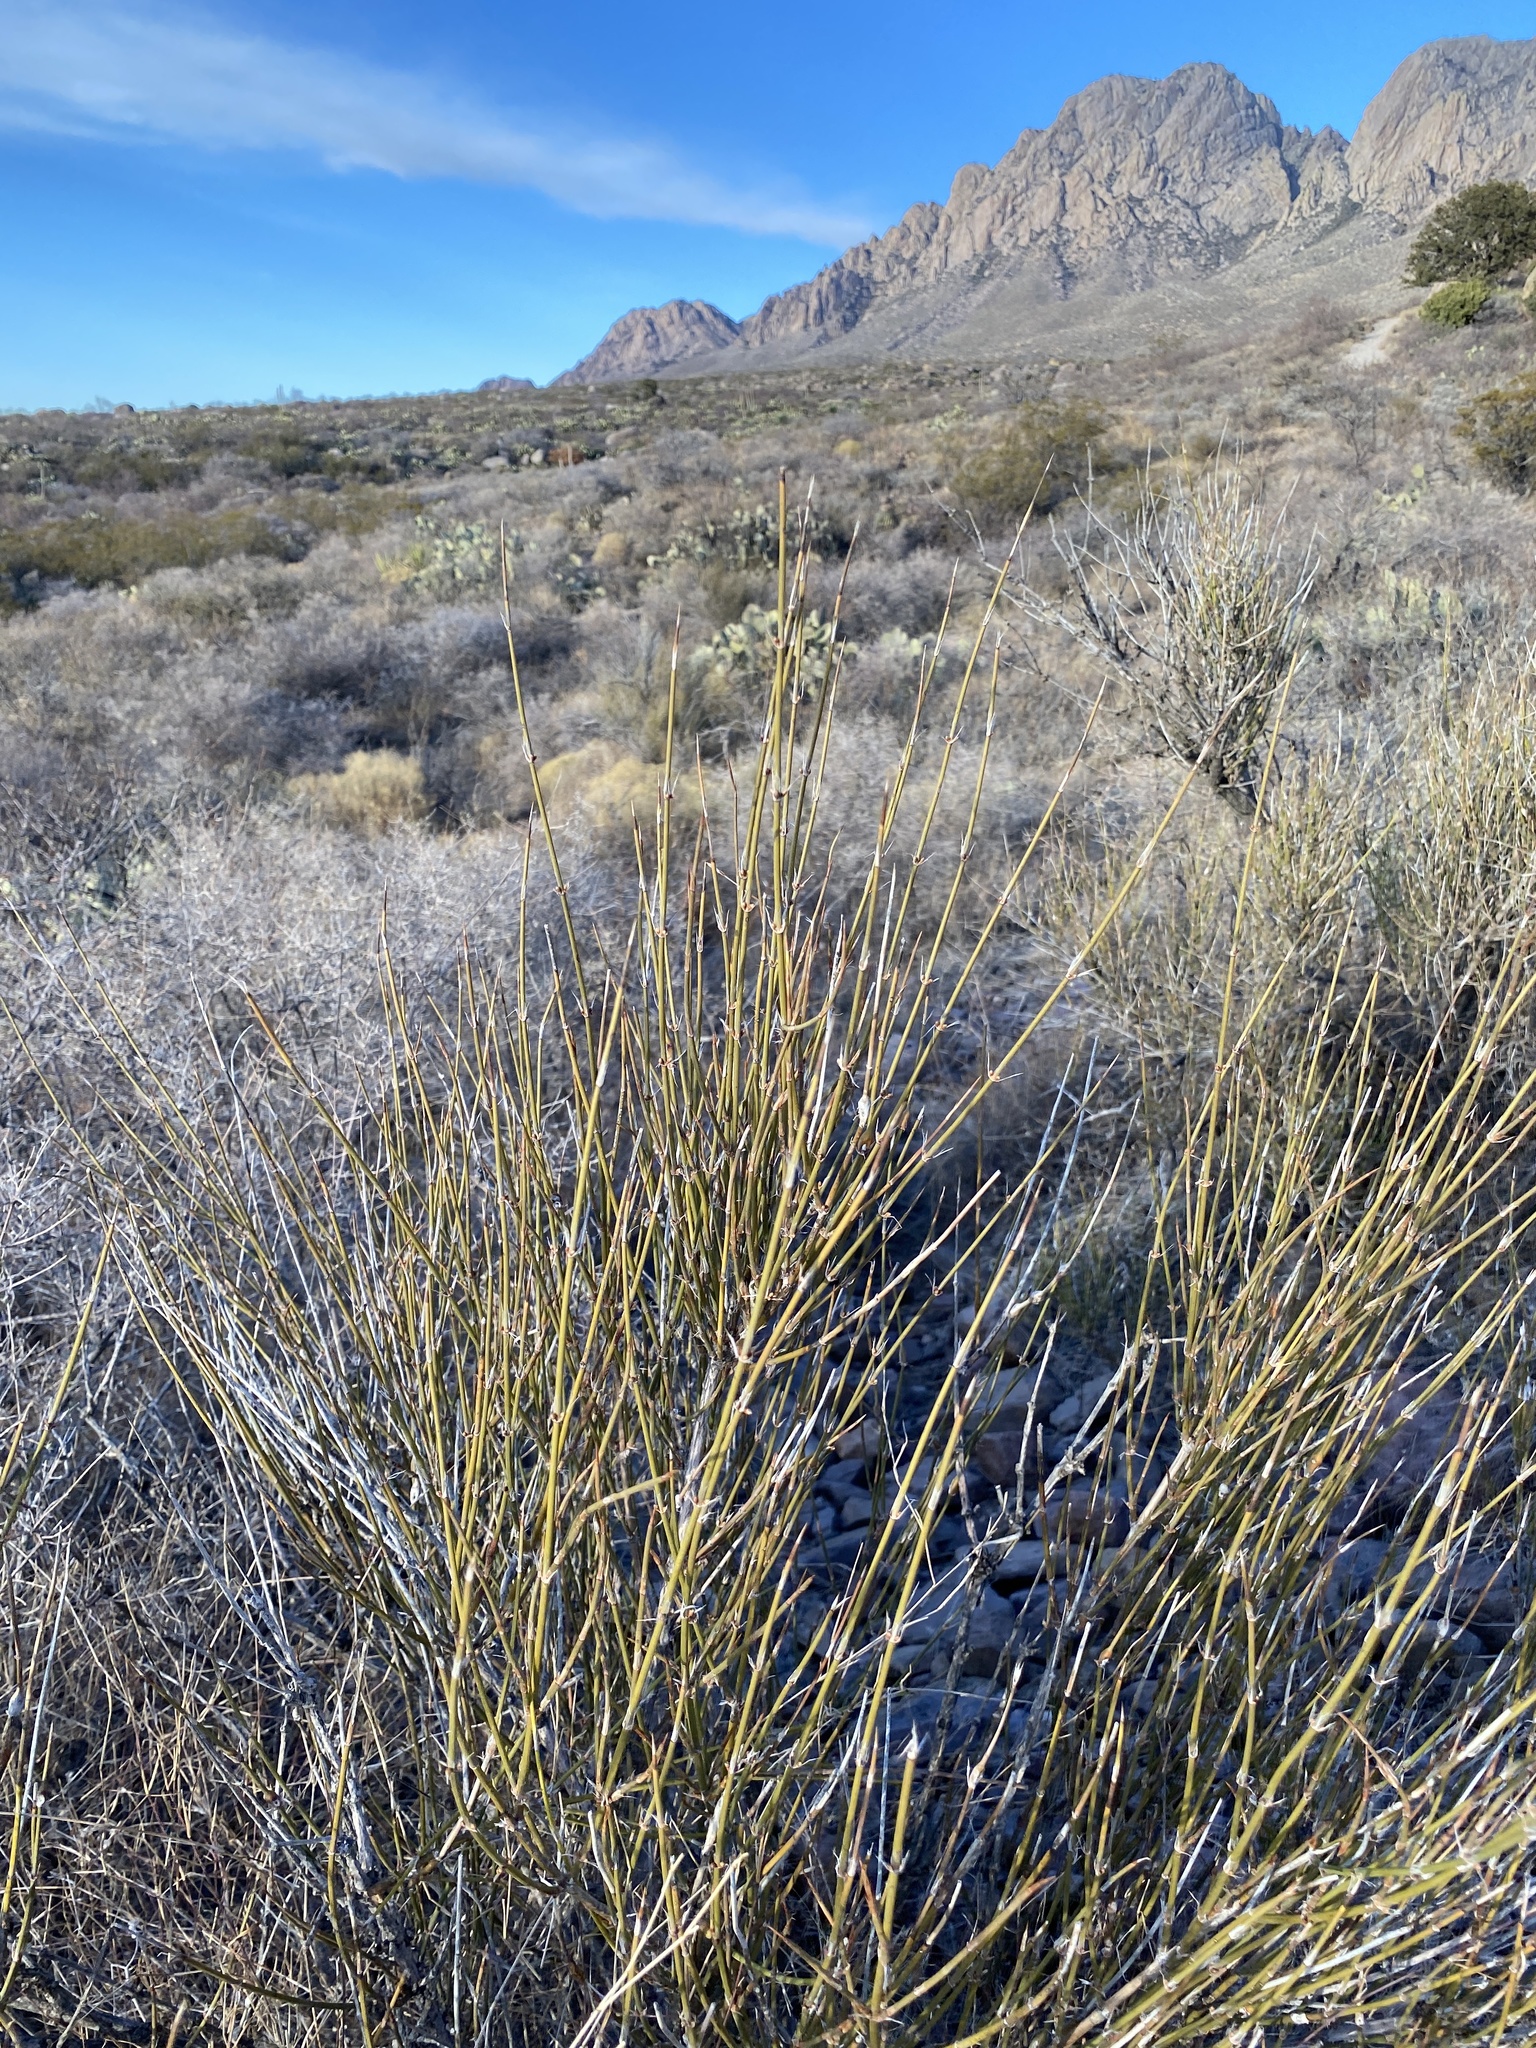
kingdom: Plantae
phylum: Tracheophyta
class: Gnetopsida
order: Ephedrales
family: Ephedraceae
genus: Ephedra
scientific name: Ephedra trifurca
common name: Mexican-tea
